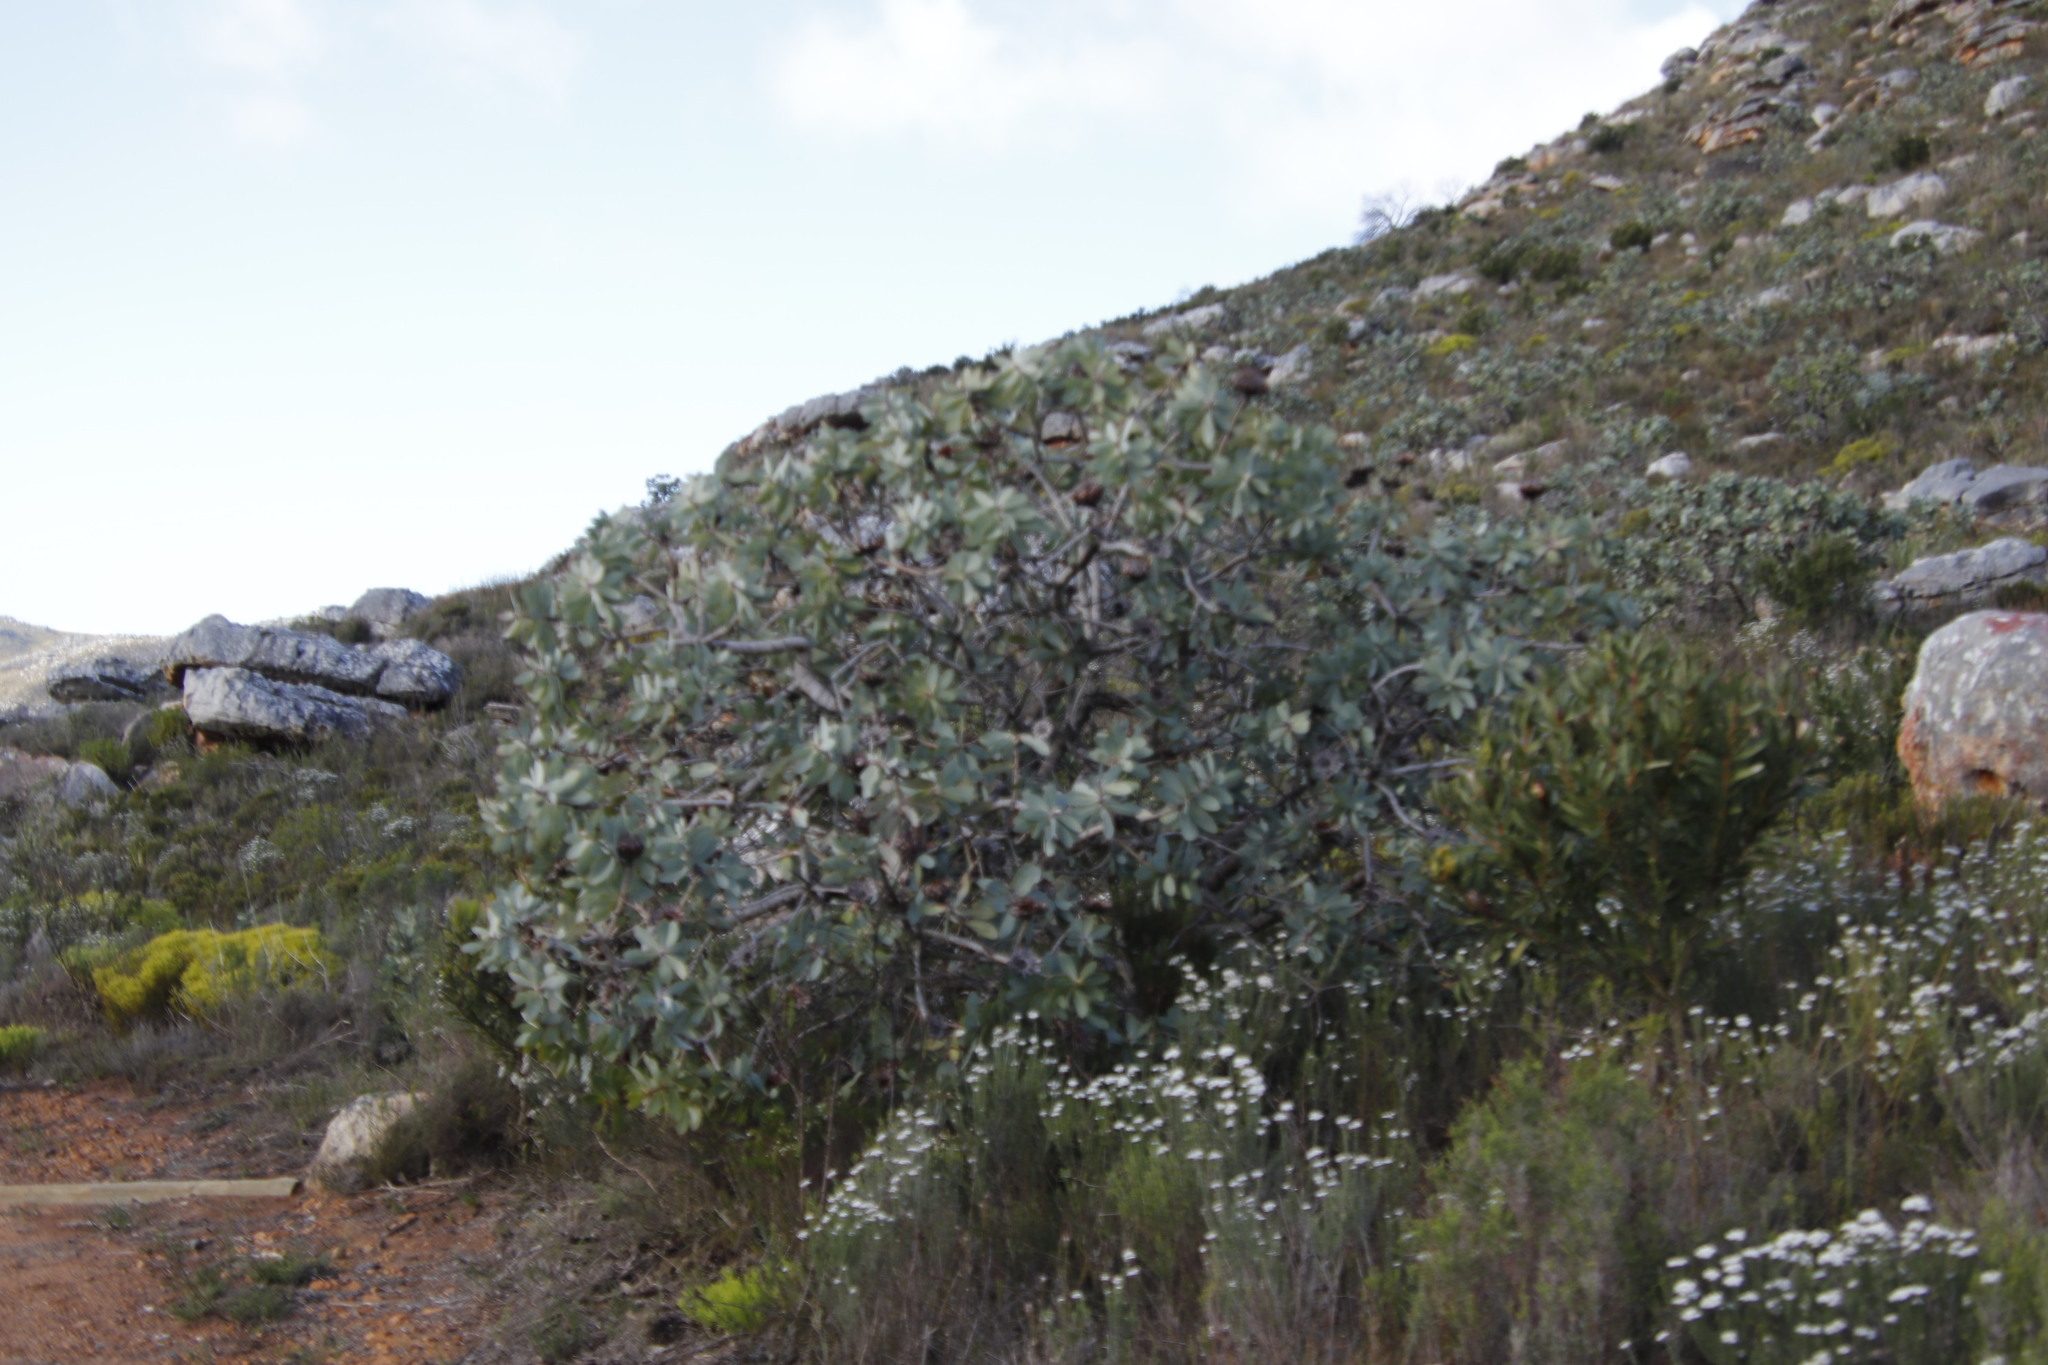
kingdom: Plantae
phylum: Tracheophyta
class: Magnoliopsida
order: Proteales
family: Proteaceae
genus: Protea
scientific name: Protea nitida
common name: Tree protea
